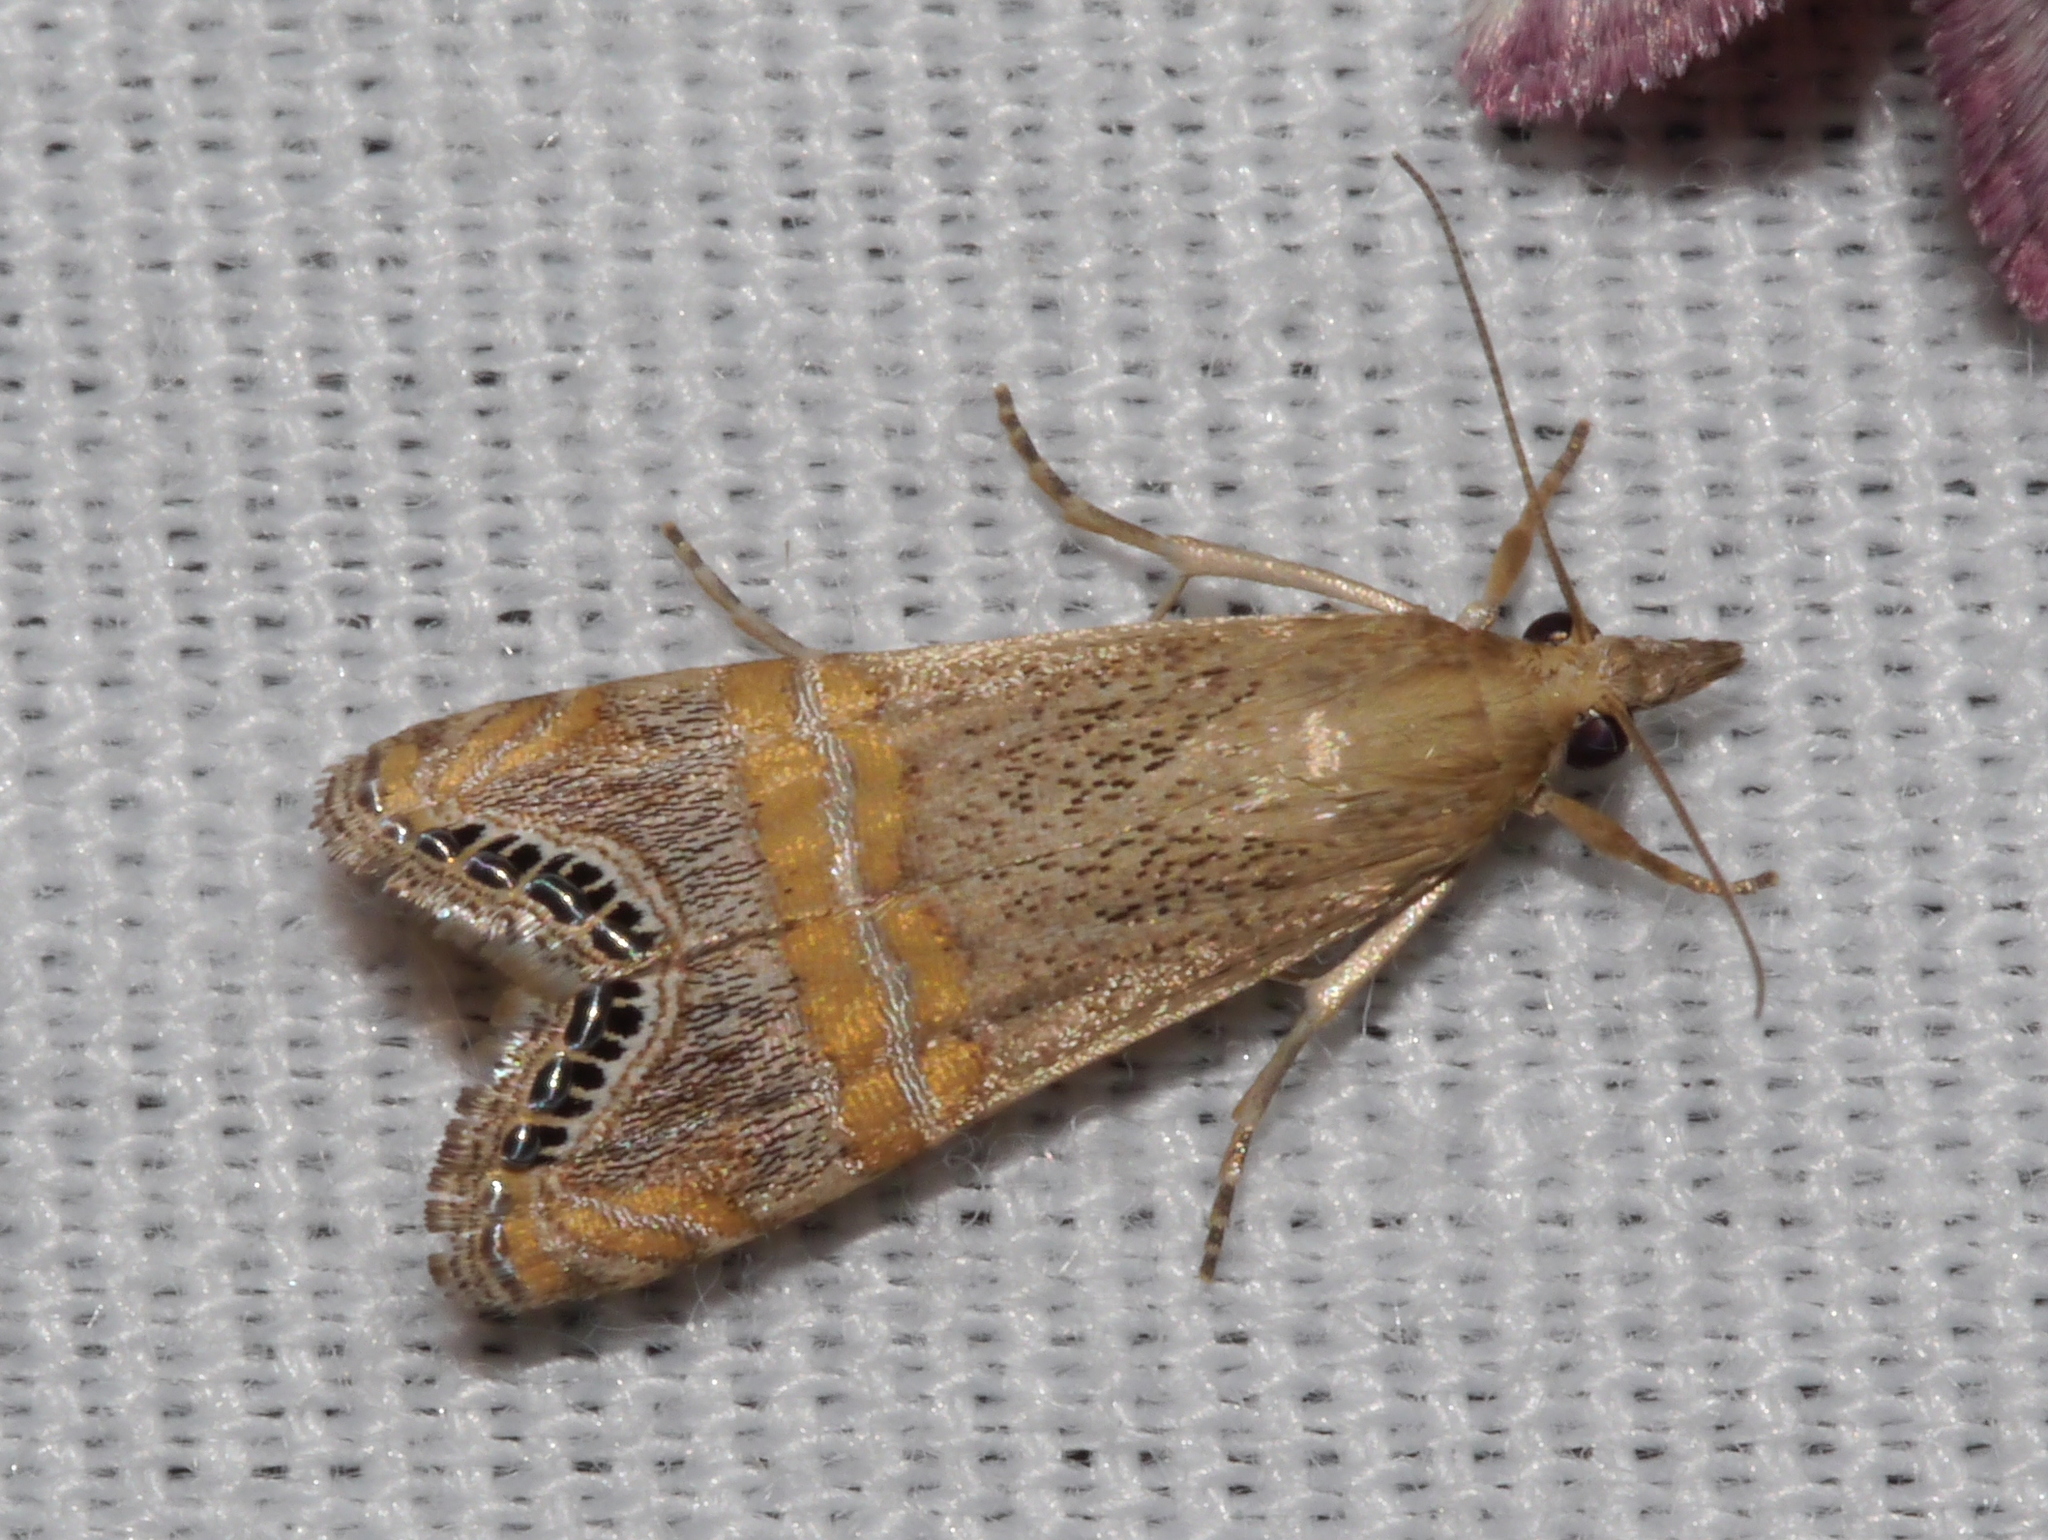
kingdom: Animalia
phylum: Arthropoda
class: Insecta
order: Lepidoptera
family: Crambidae
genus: Euchromius
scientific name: Euchromius ocellea
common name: Necklace veneer moth
